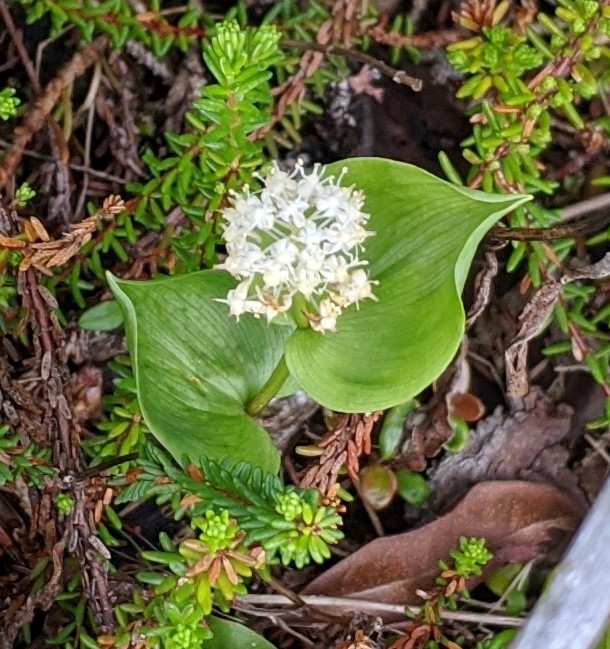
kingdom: Plantae
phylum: Tracheophyta
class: Liliopsida
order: Asparagales
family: Asparagaceae
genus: Maianthemum
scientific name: Maianthemum canadense
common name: False lily-of-the-valley
